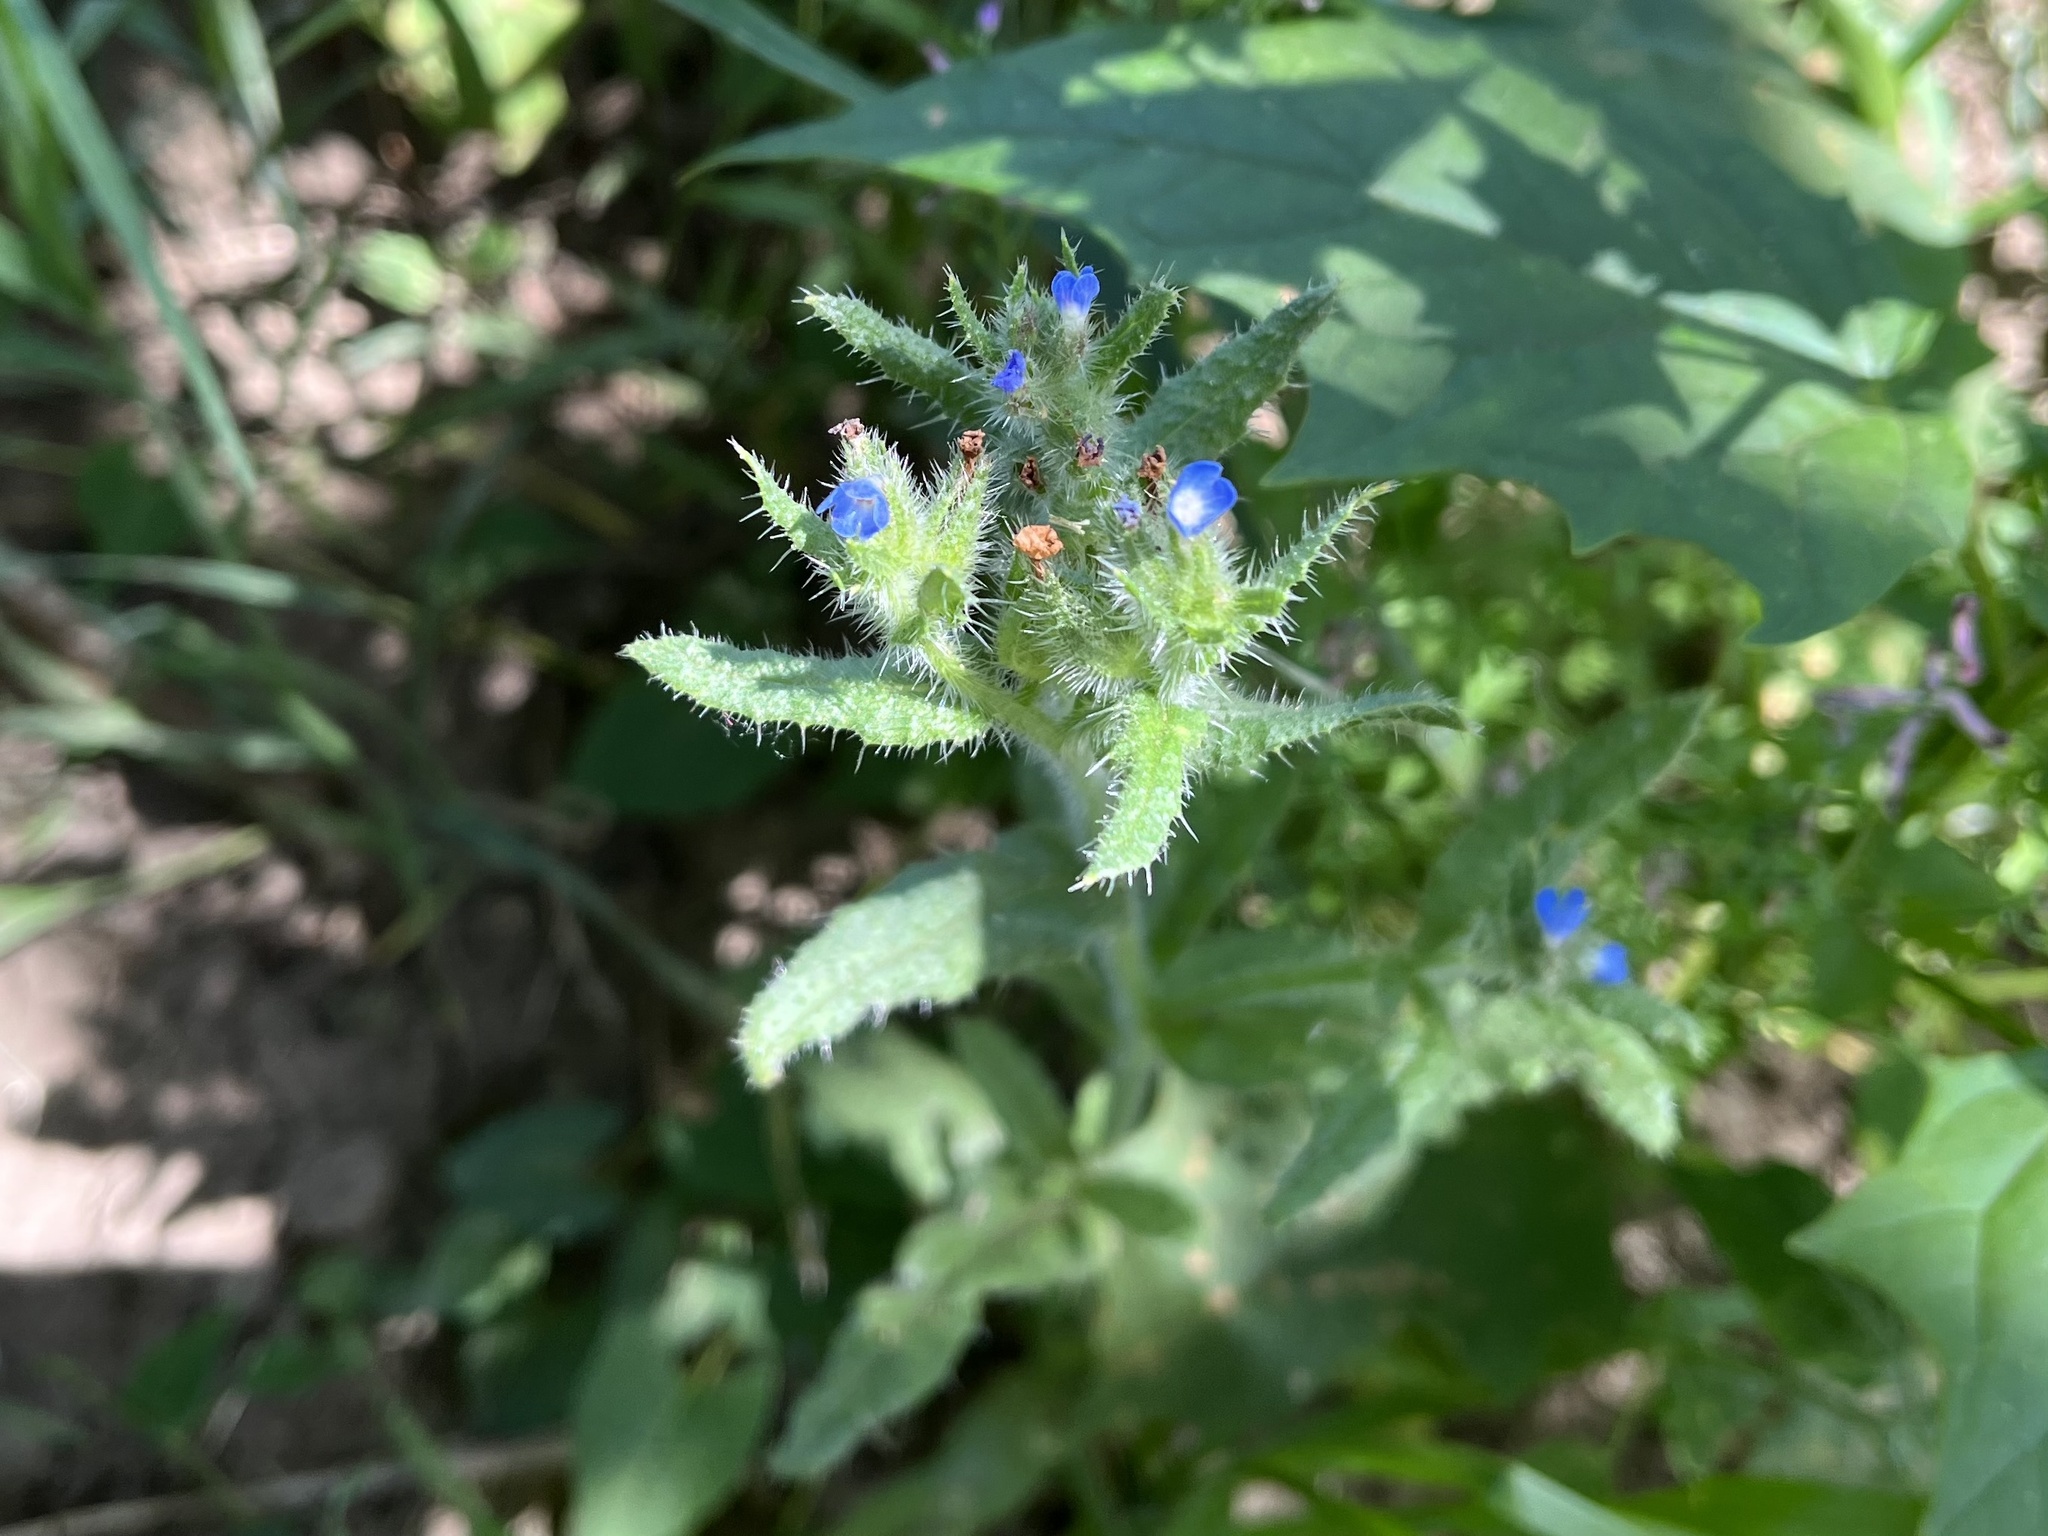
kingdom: Plantae
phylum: Tracheophyta
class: Magnoliopsida
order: Boraginales
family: Boraginaceae
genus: Lycopsis
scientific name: Lycopsis arvensis
